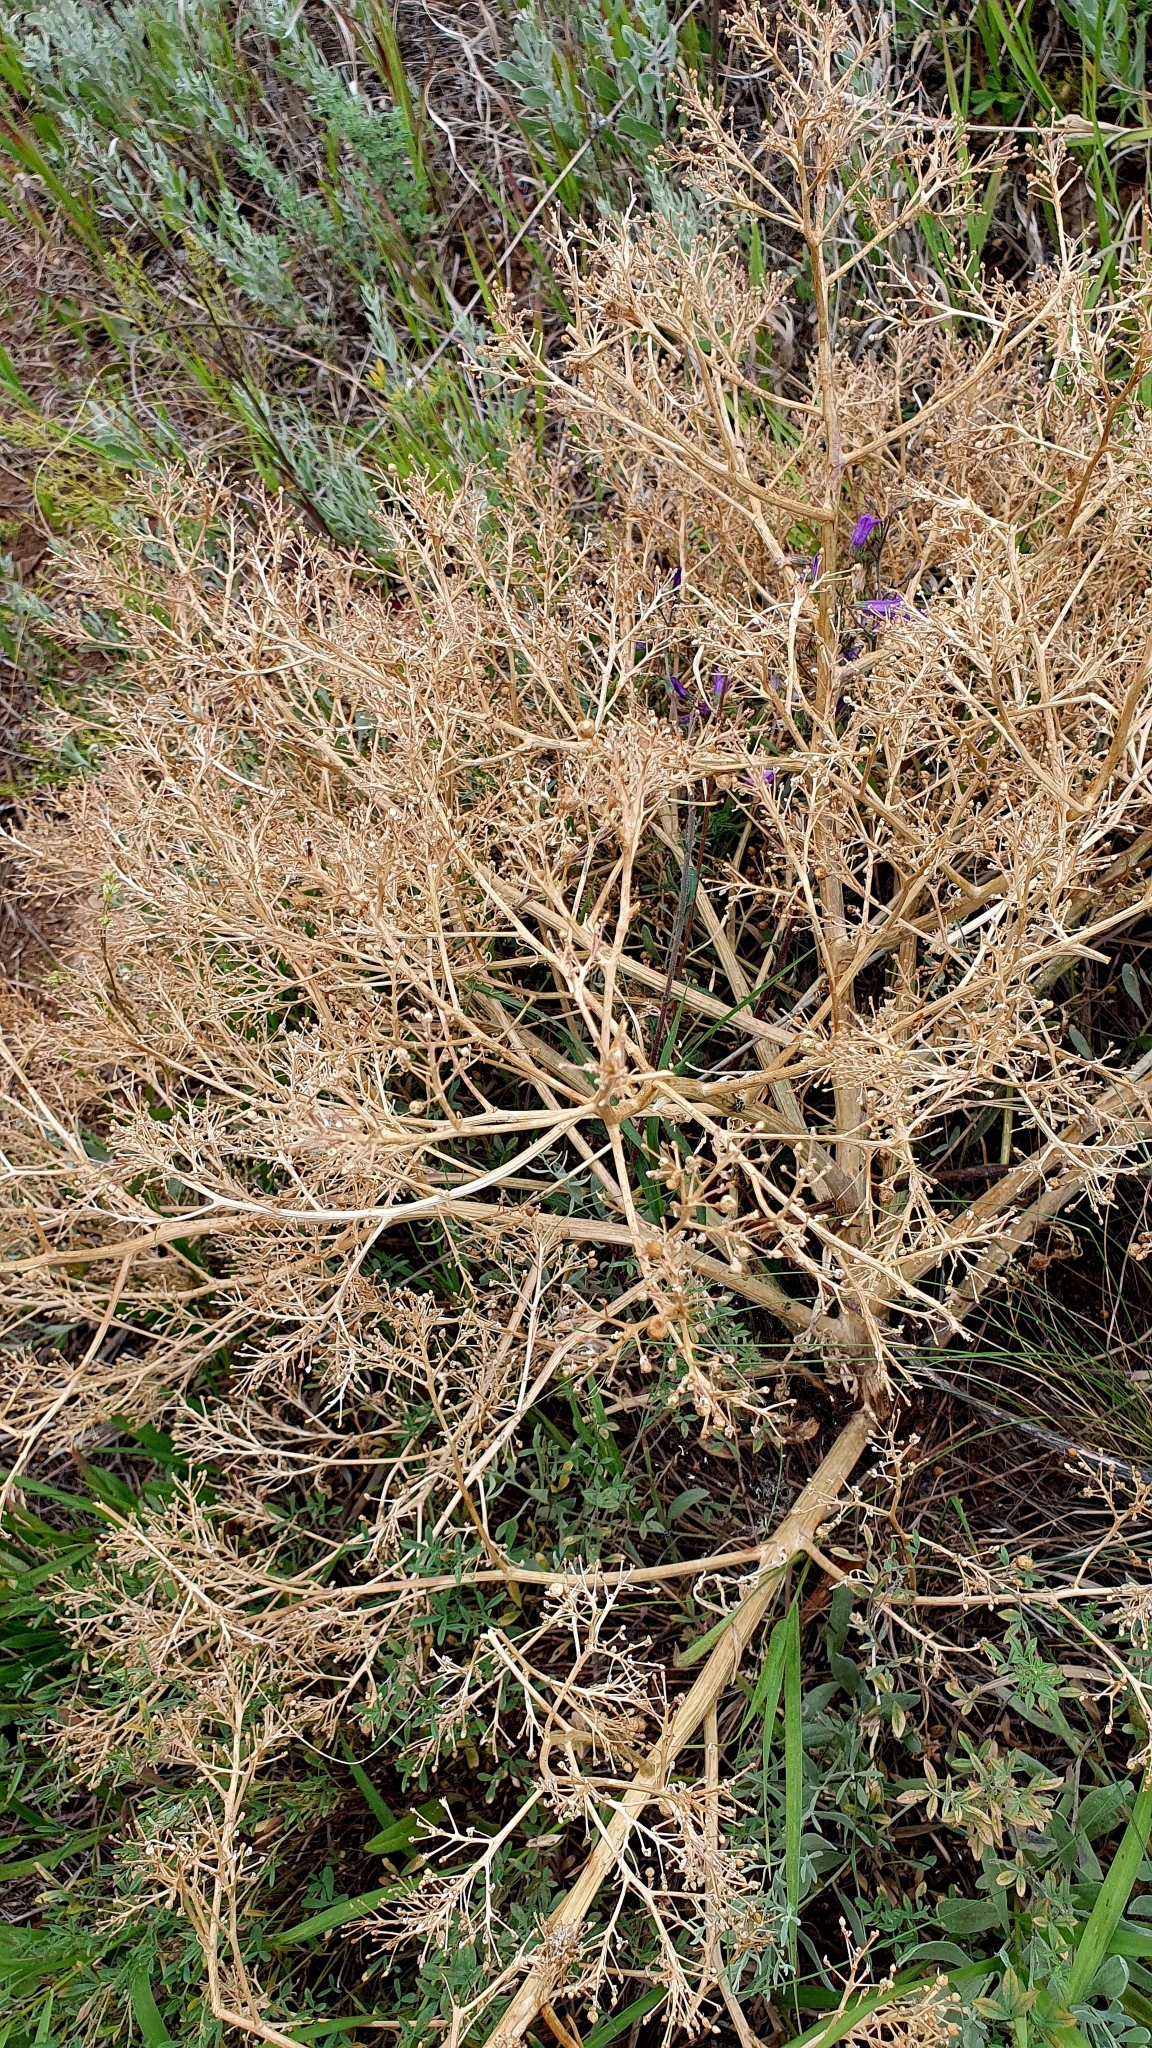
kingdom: Plantae
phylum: Tracheophyta
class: Magnoliopsida
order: Brassicales
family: Brassicaceae
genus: Crambe
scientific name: Crambe tataria
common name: Tartarian breadplant
